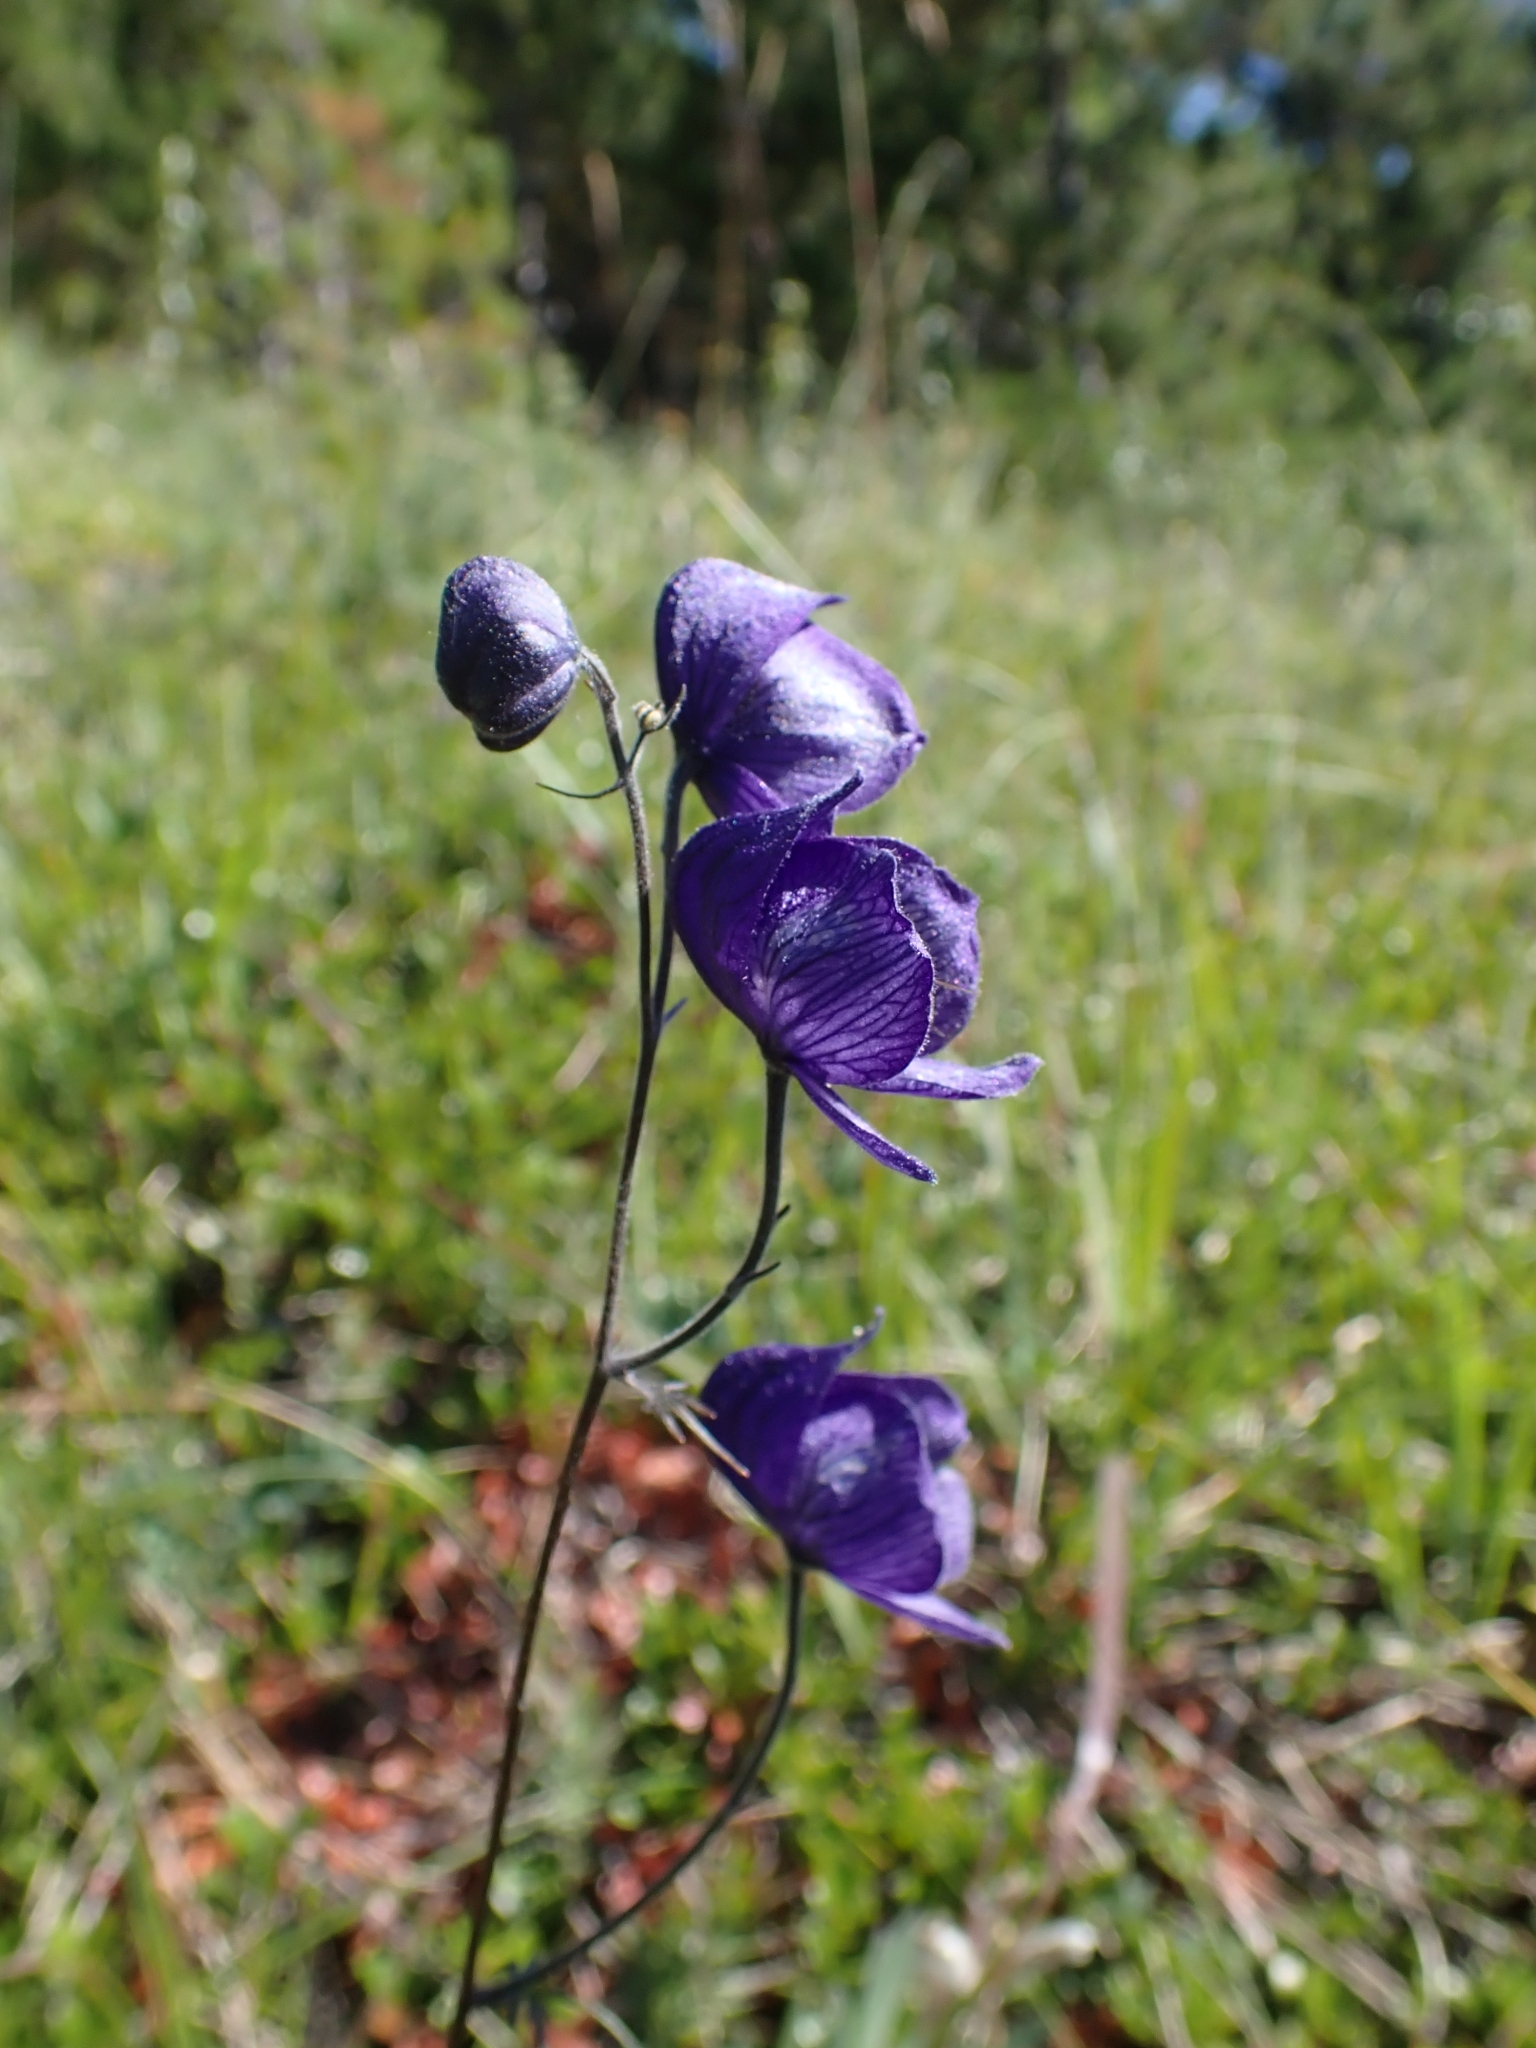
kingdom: Plantae
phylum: Tracheophyta
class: Magnoliopsida
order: Ranunculales
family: Ranunculaceae
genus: Aconitum
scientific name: Aconitum delphiniifolium
